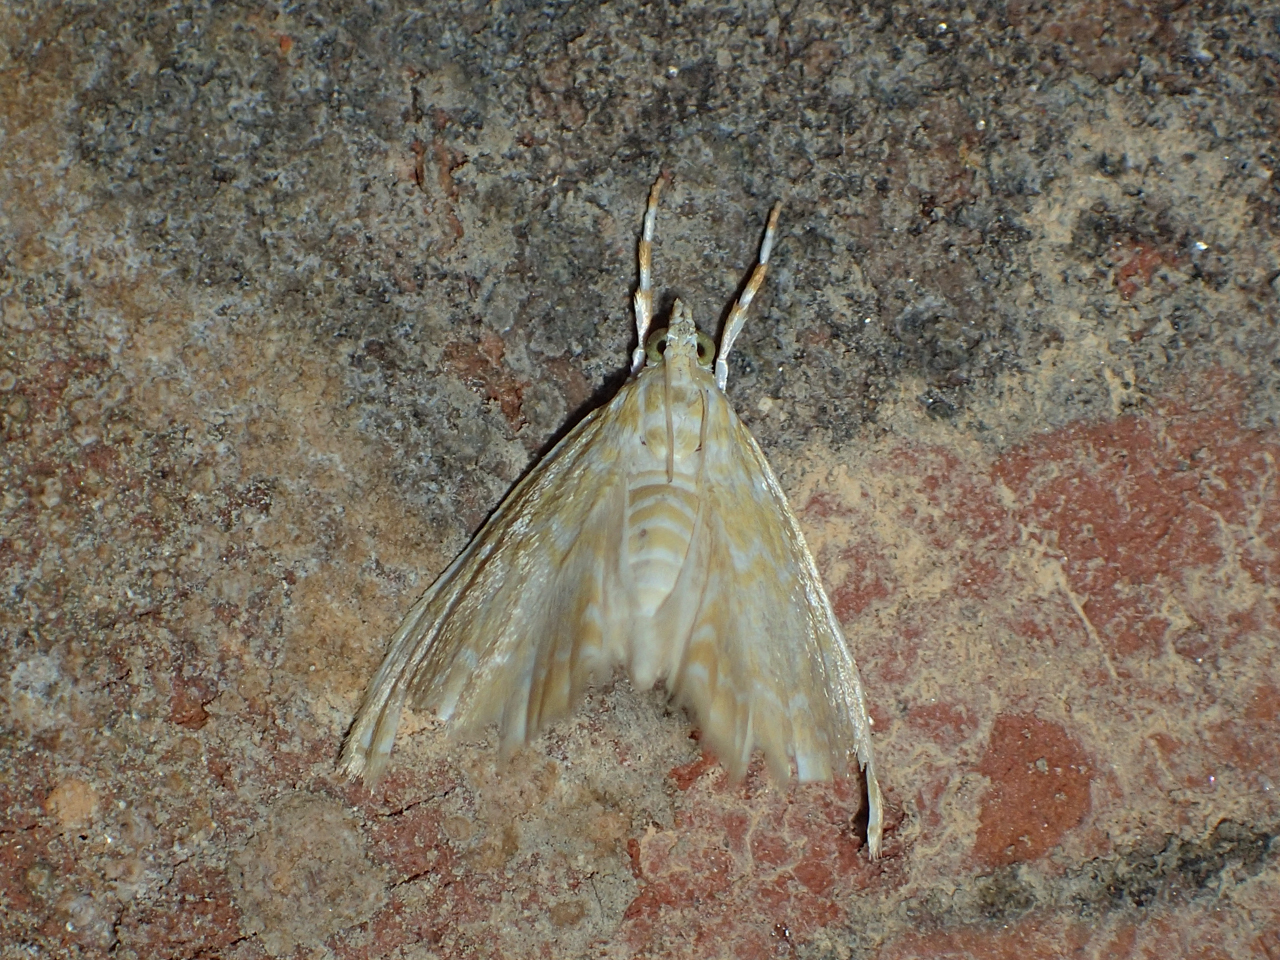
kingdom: Animalia
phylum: Arthropoda
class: Insecta
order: Lepidoptera
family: Crambidae
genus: Glaphyria
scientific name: Glaphyria glaphyralis
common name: Common glaphyria moth
